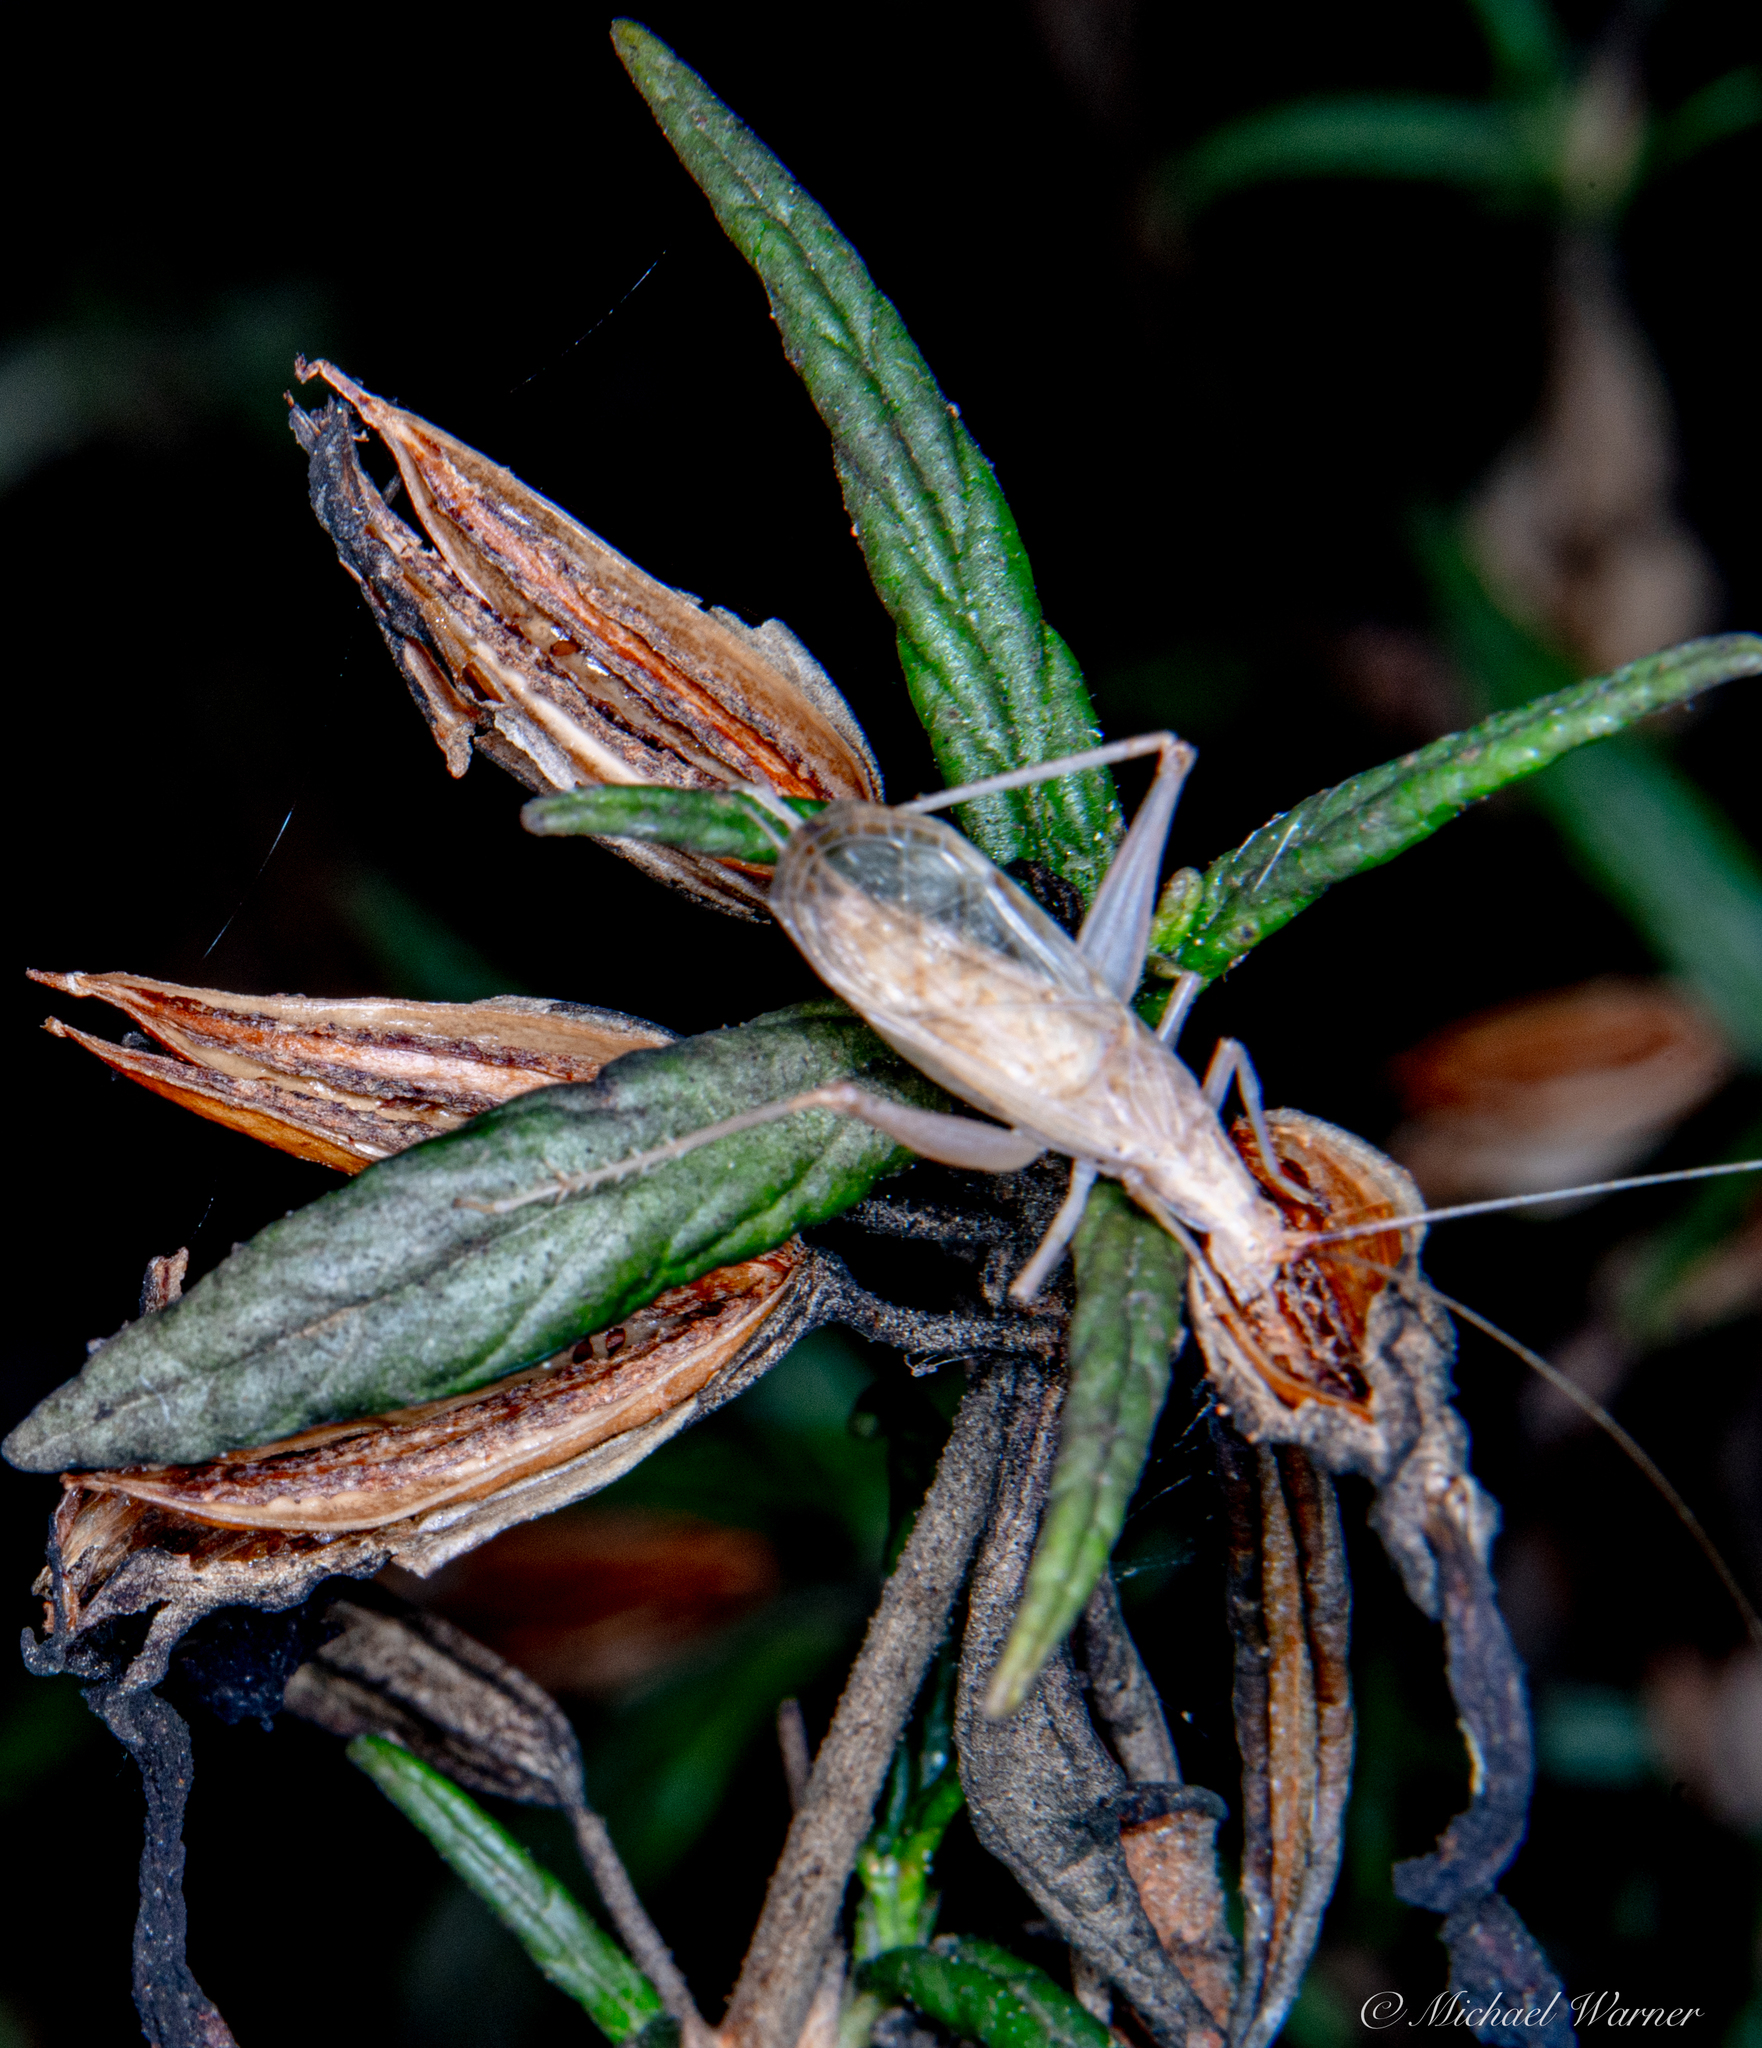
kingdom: Animalia
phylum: Arthropoda
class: Insecta
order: Orthoptera
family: Gryllidae
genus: Oecanthus
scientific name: Oecanthus californicus
